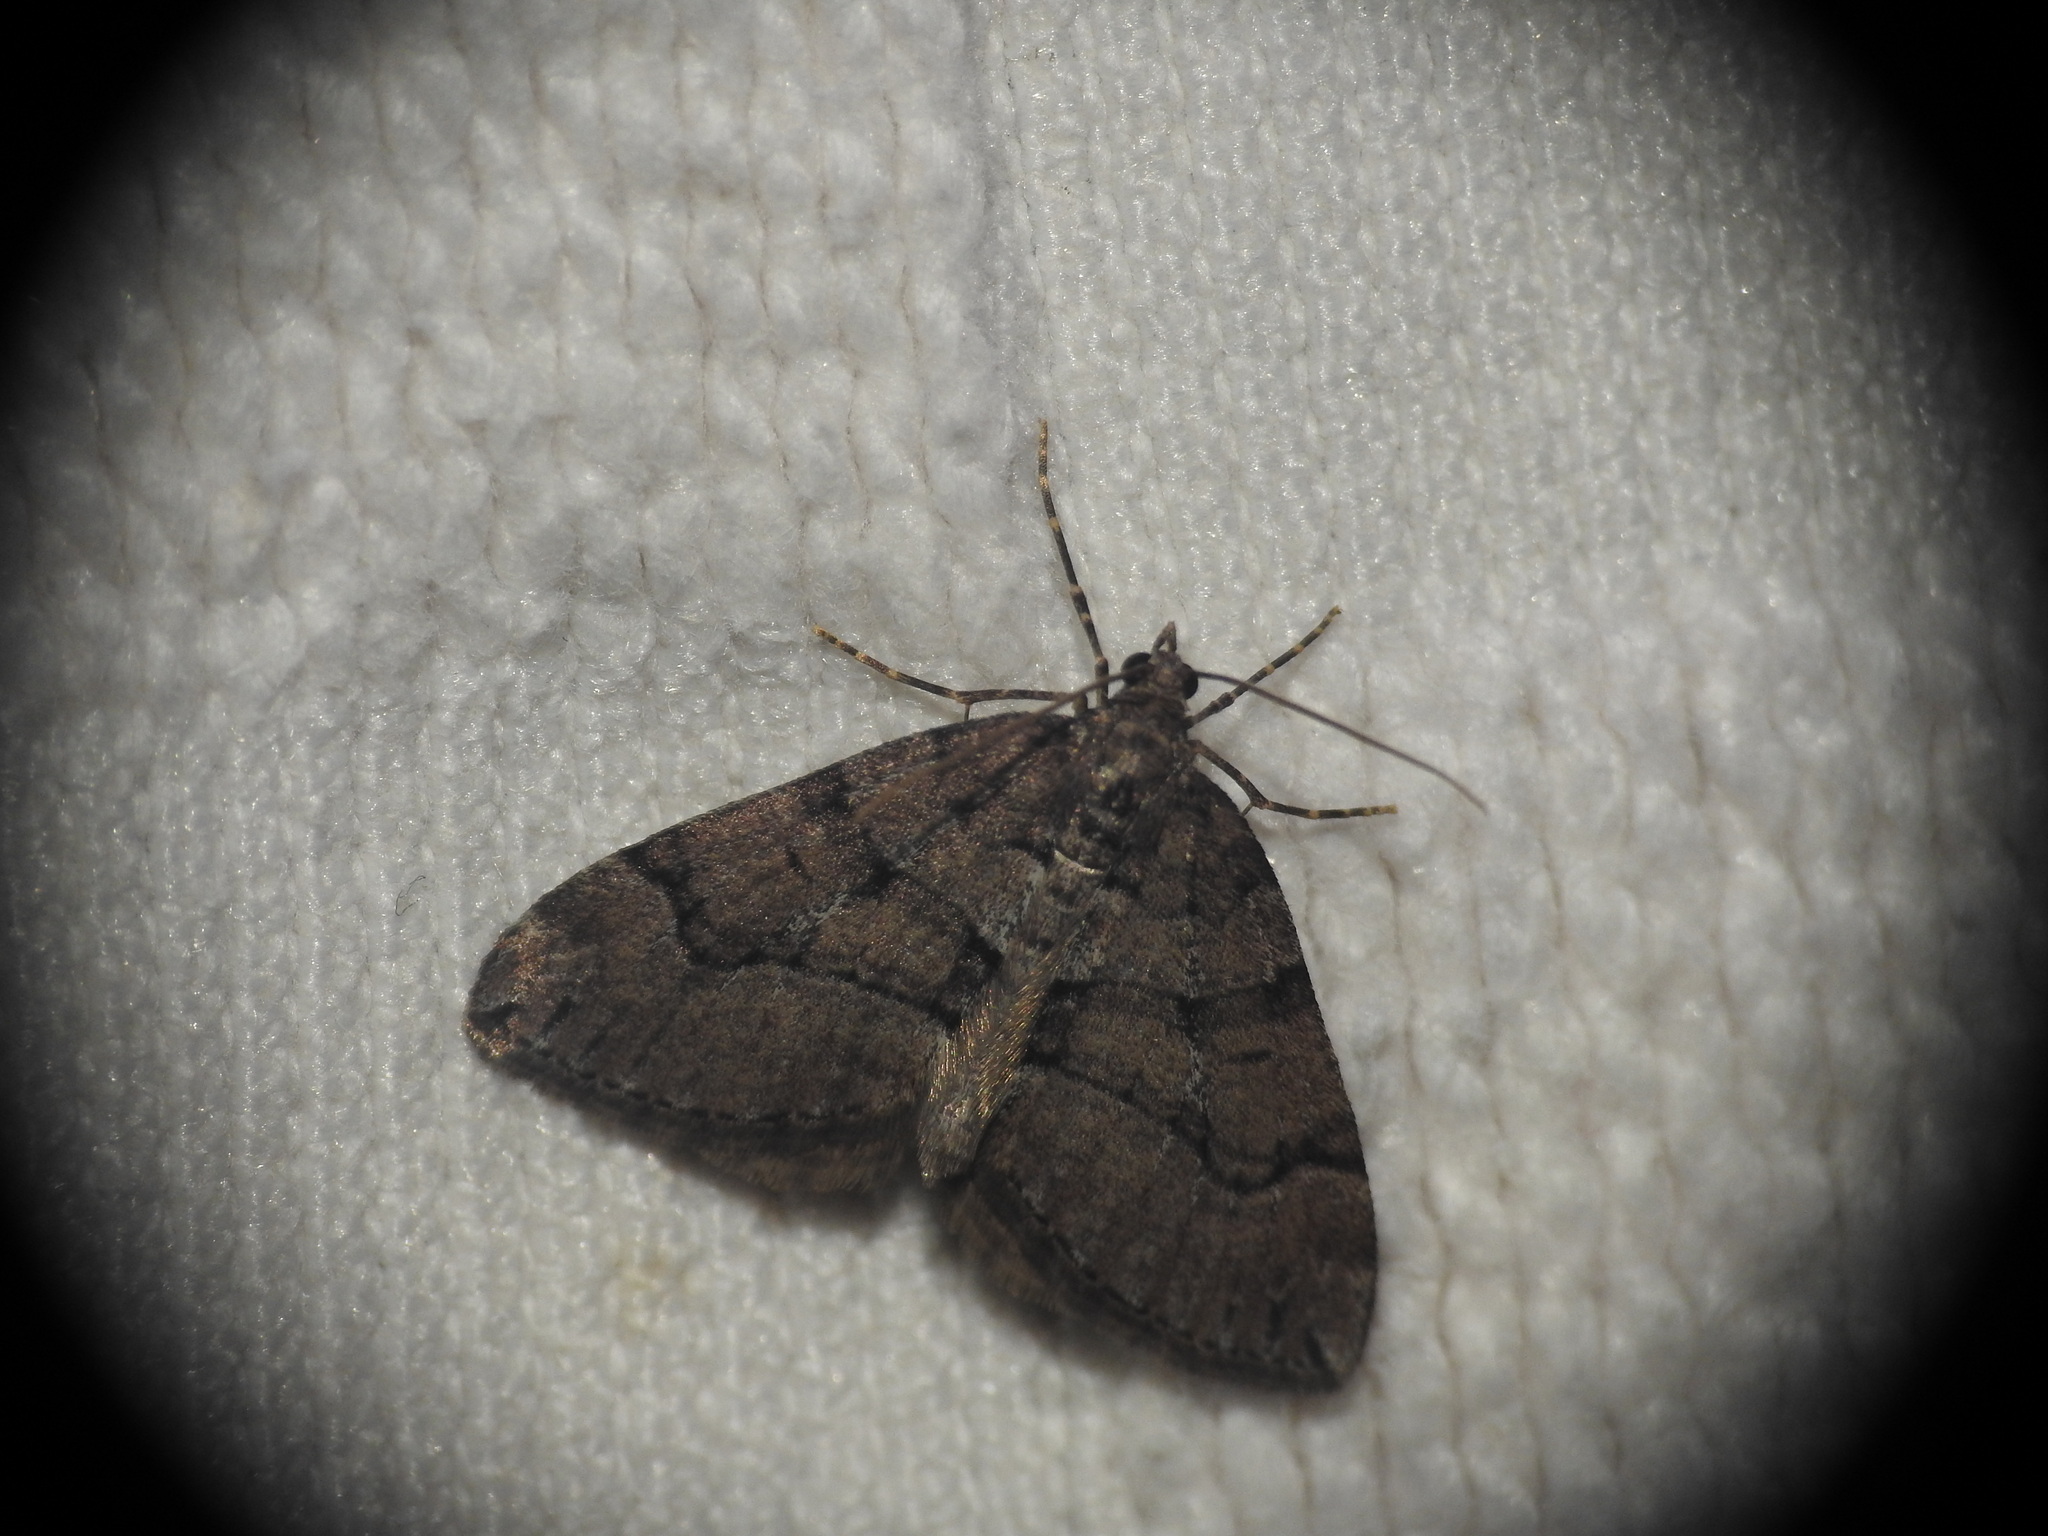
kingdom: Animalia
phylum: Arthropoda
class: Insecta
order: Lepidoptera
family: Geometridae
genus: Thera
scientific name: Thera cognata
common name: Chestnut-coloured carpet
